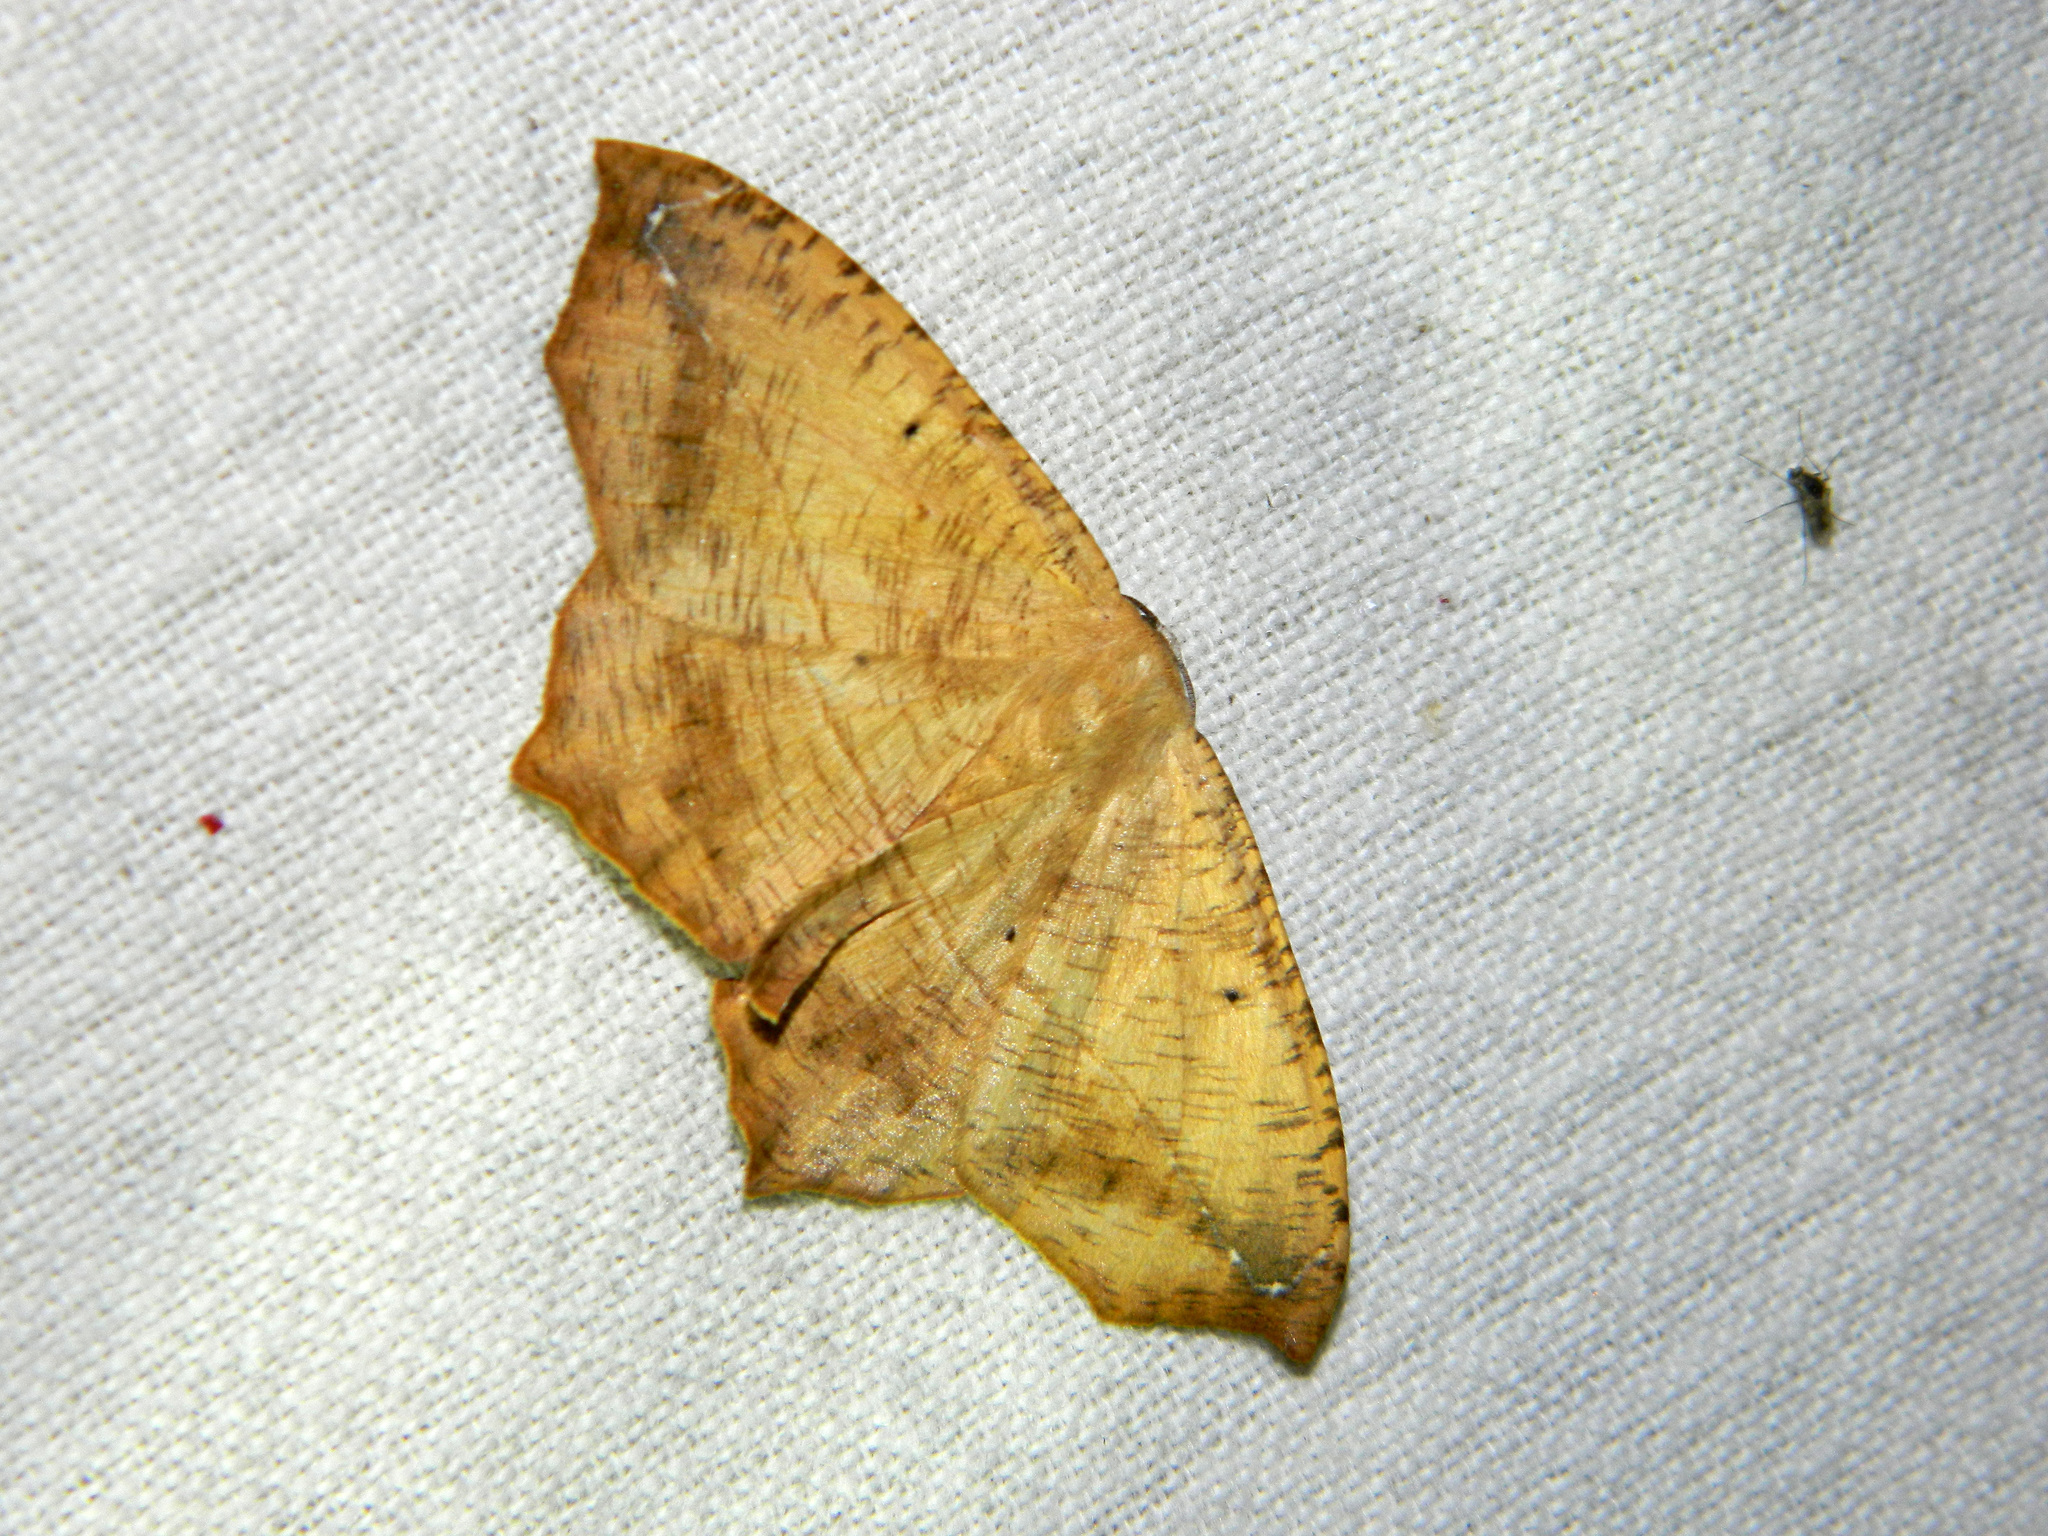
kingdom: Animalia
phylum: Arthropoda
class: Insecta
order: Lepidoptera
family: Geometridae
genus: Prochoerodes
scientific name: Prochoerodes lineola
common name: Large maple spanworm
